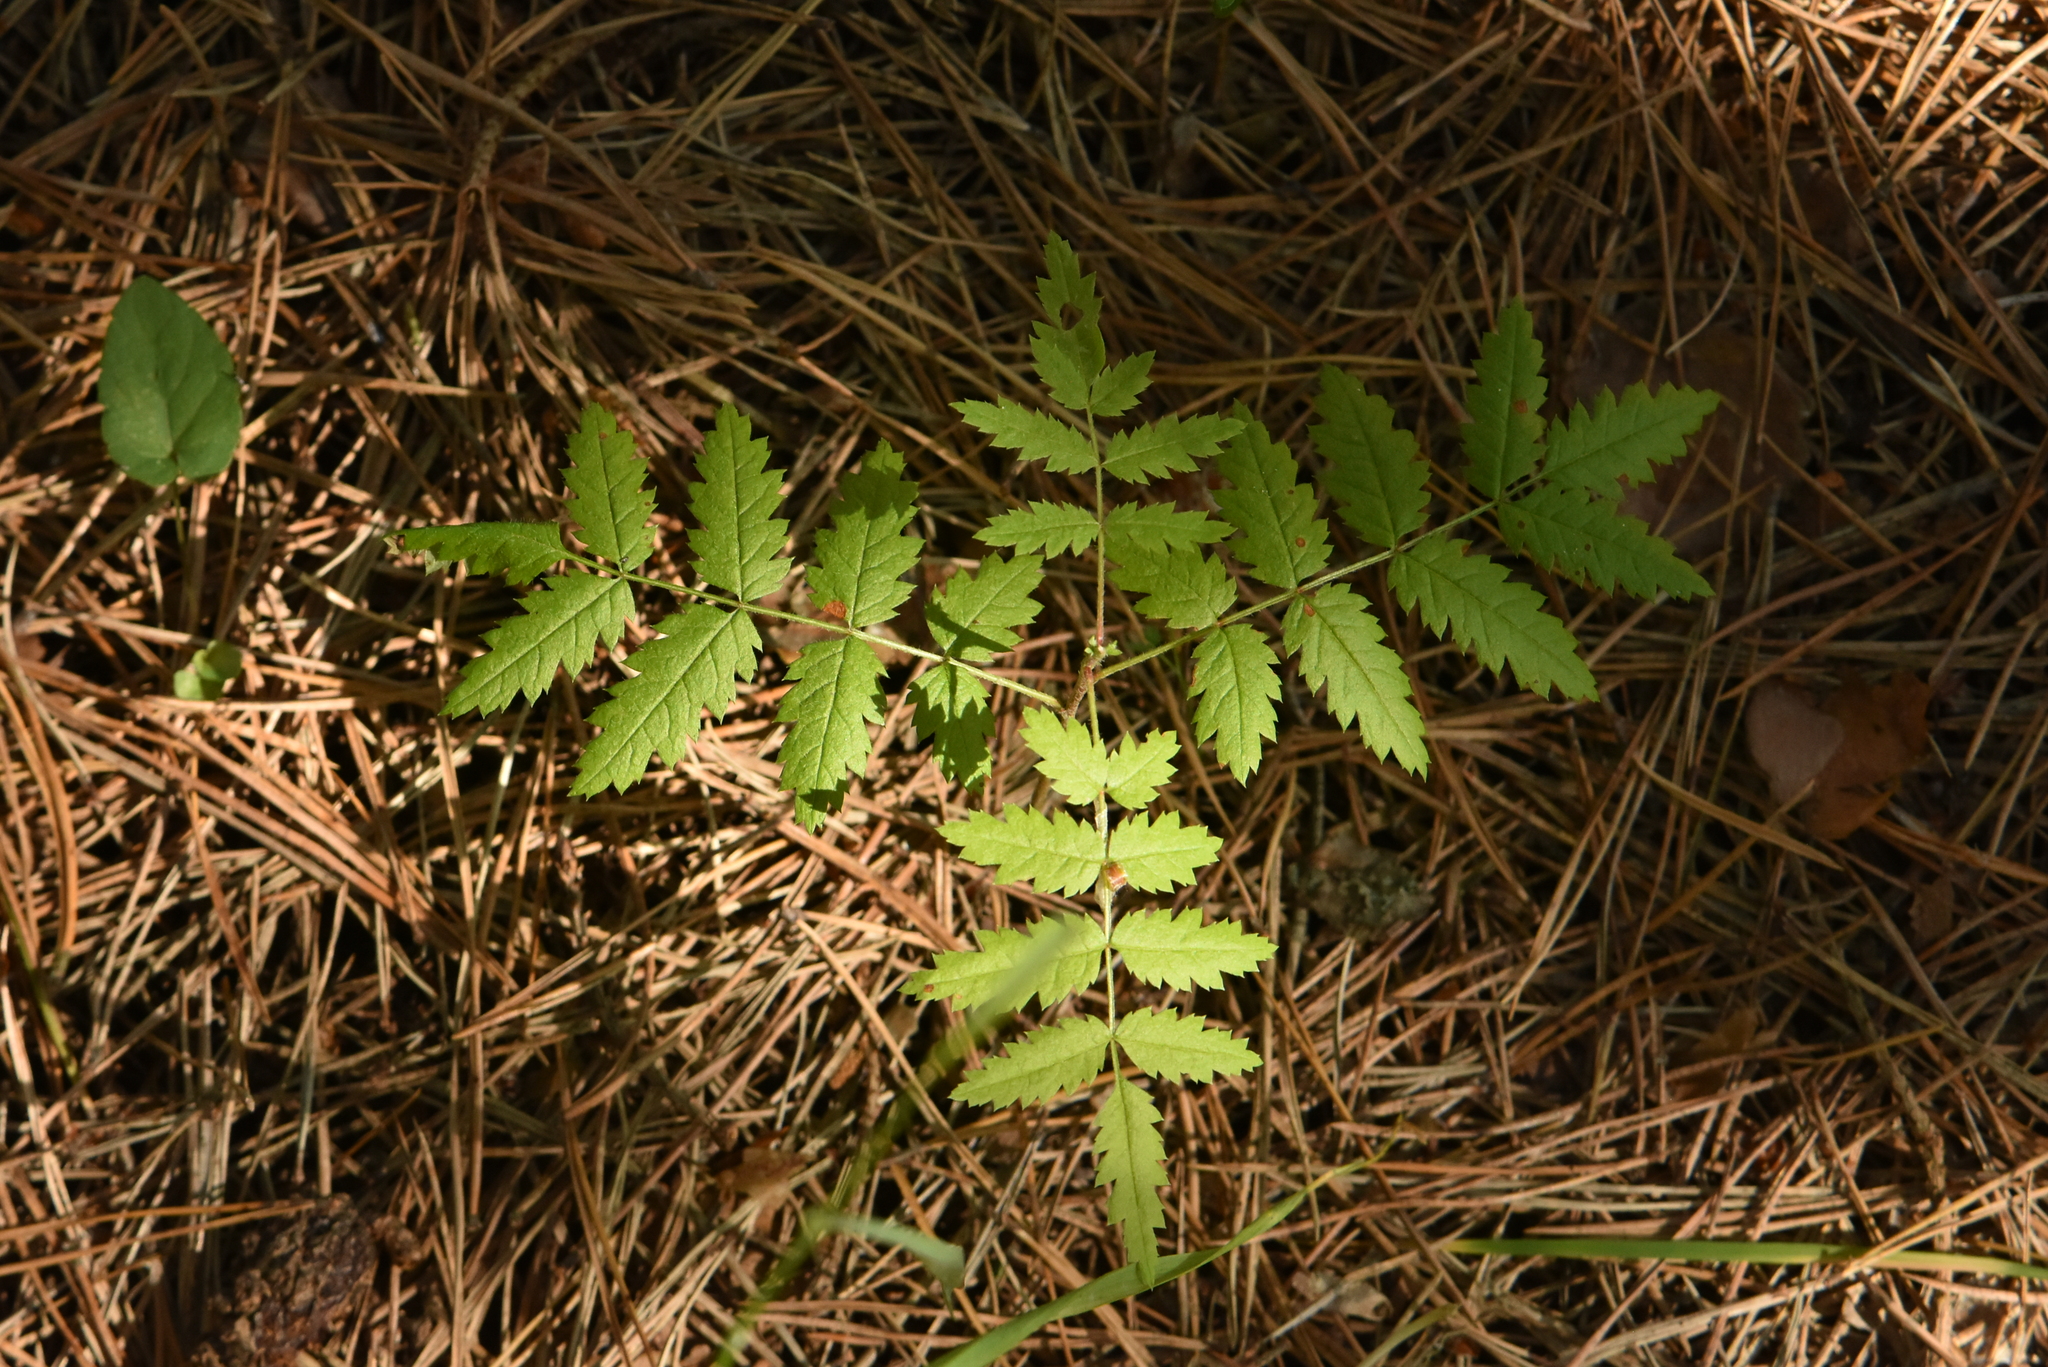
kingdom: Plantae
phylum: Tracheophyta
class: Magnoliopsida
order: Rosales
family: Rosaceae
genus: Sorbus
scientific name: Sorbus aucuparia
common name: Rowan
